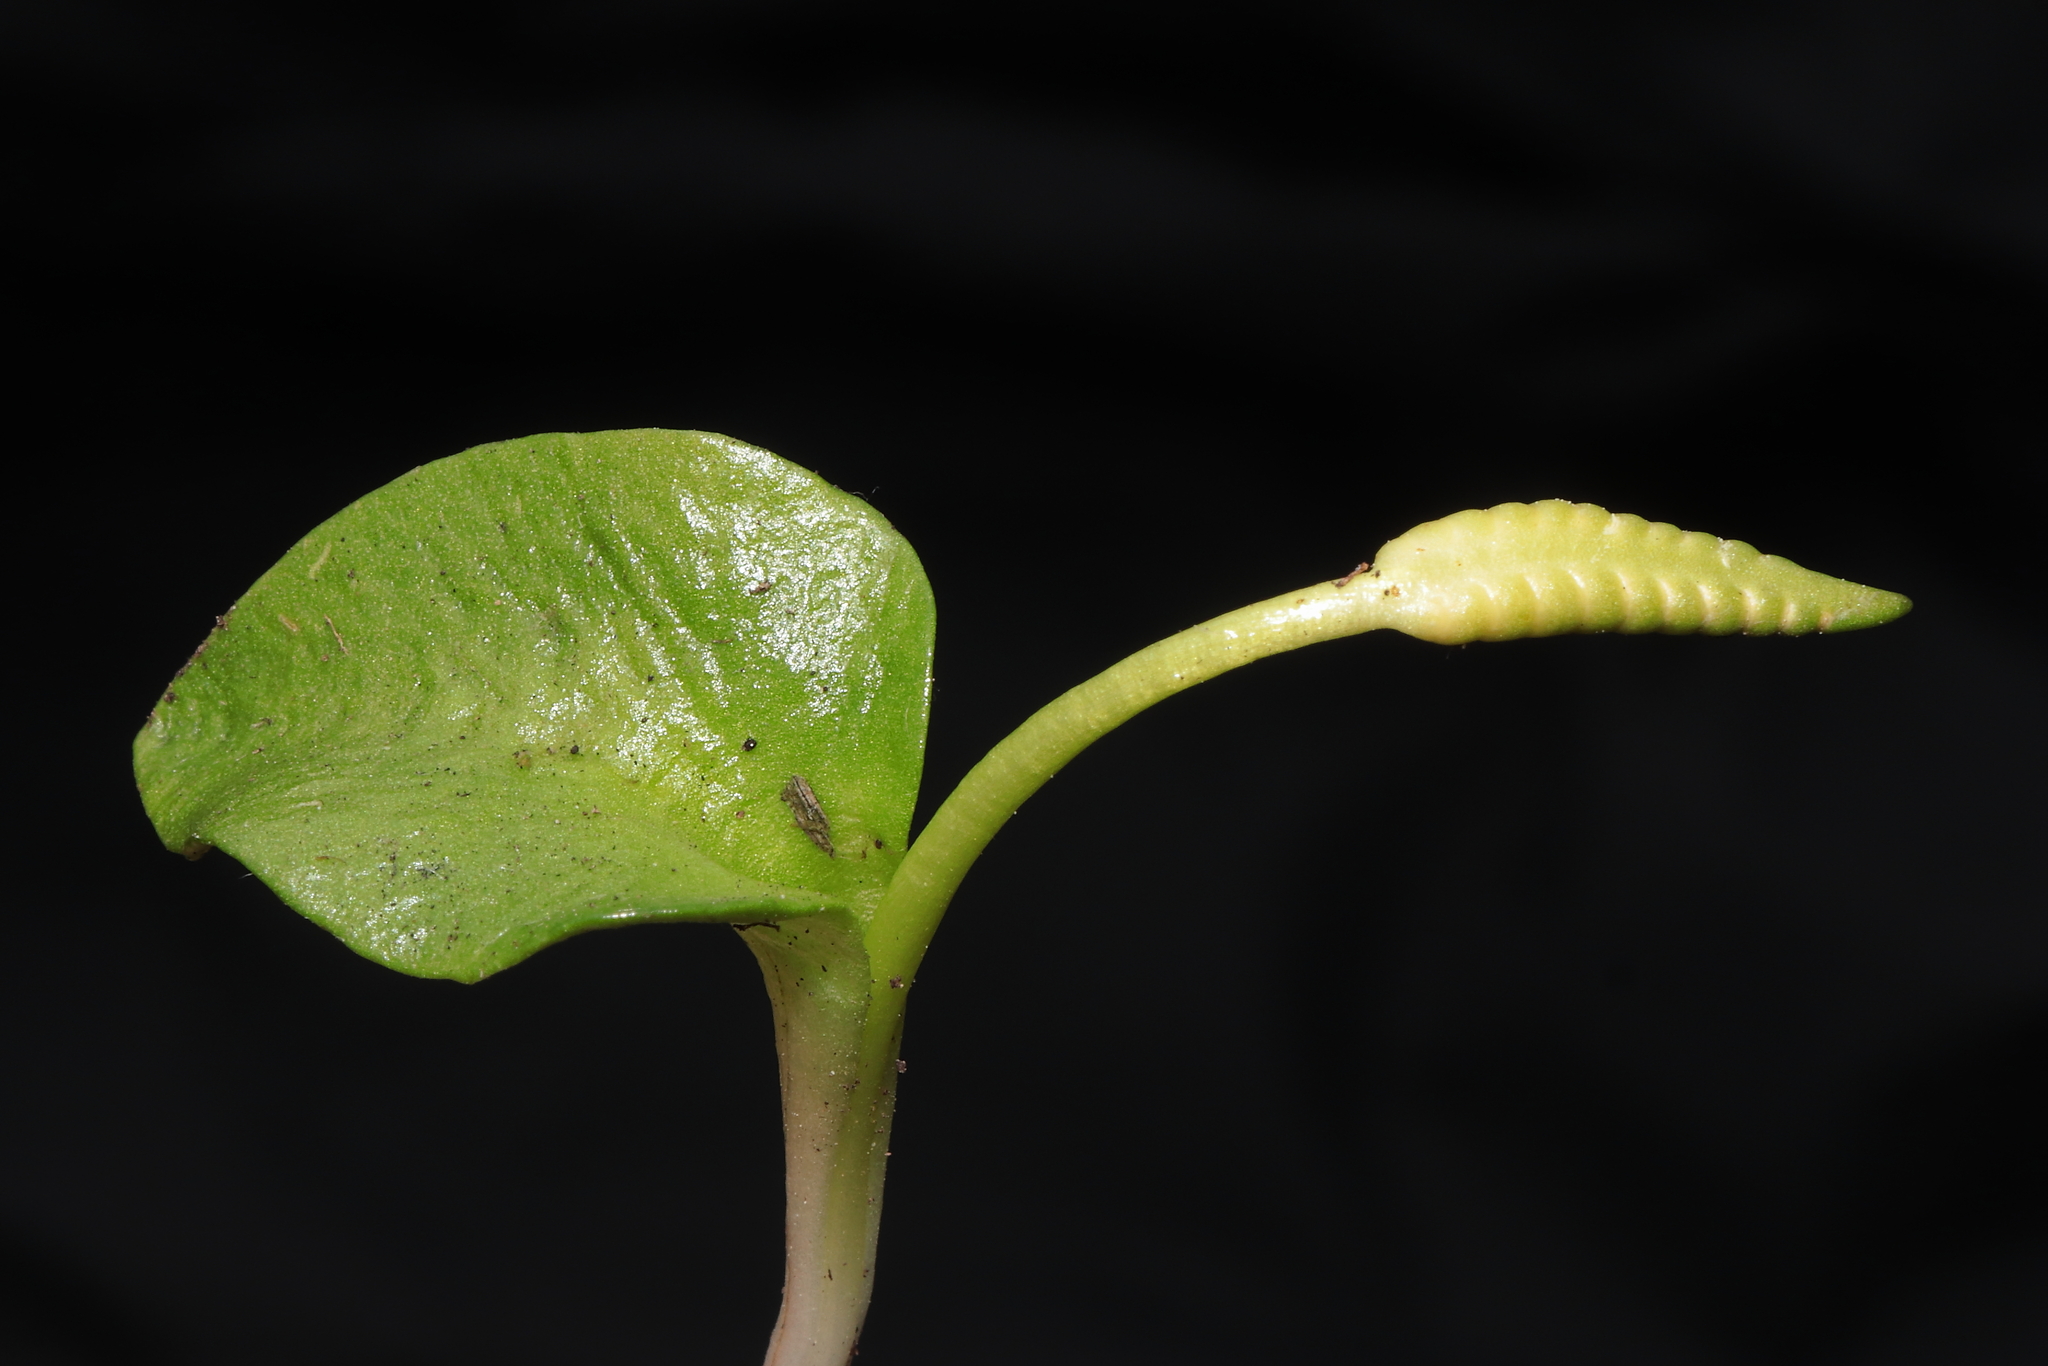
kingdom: Plantae
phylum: Tracheophyta
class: Polypodiopsida
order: Ophioglossales
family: Ophioglossaceae
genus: Ophioglossum
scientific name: Ophioglossum crotalophoroides
